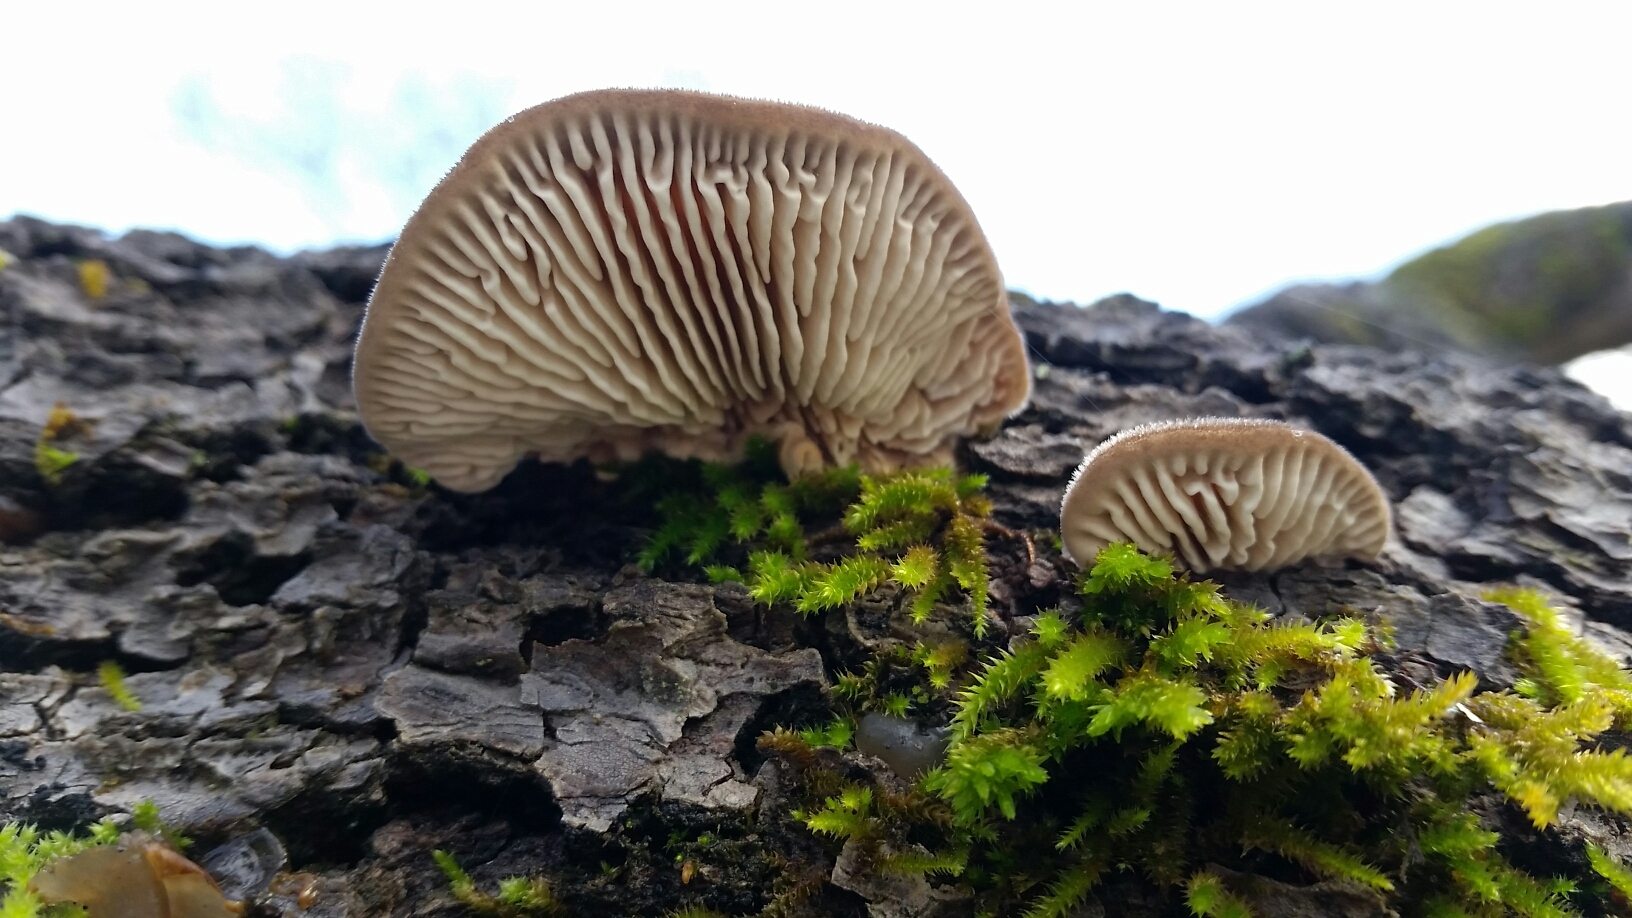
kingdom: Fungi
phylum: Basidiomycota
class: Agaricomycetes
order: Polyporales
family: Polyporaceae
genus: Lenzites
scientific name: Lenzites betulinus
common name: Birch mazegill
